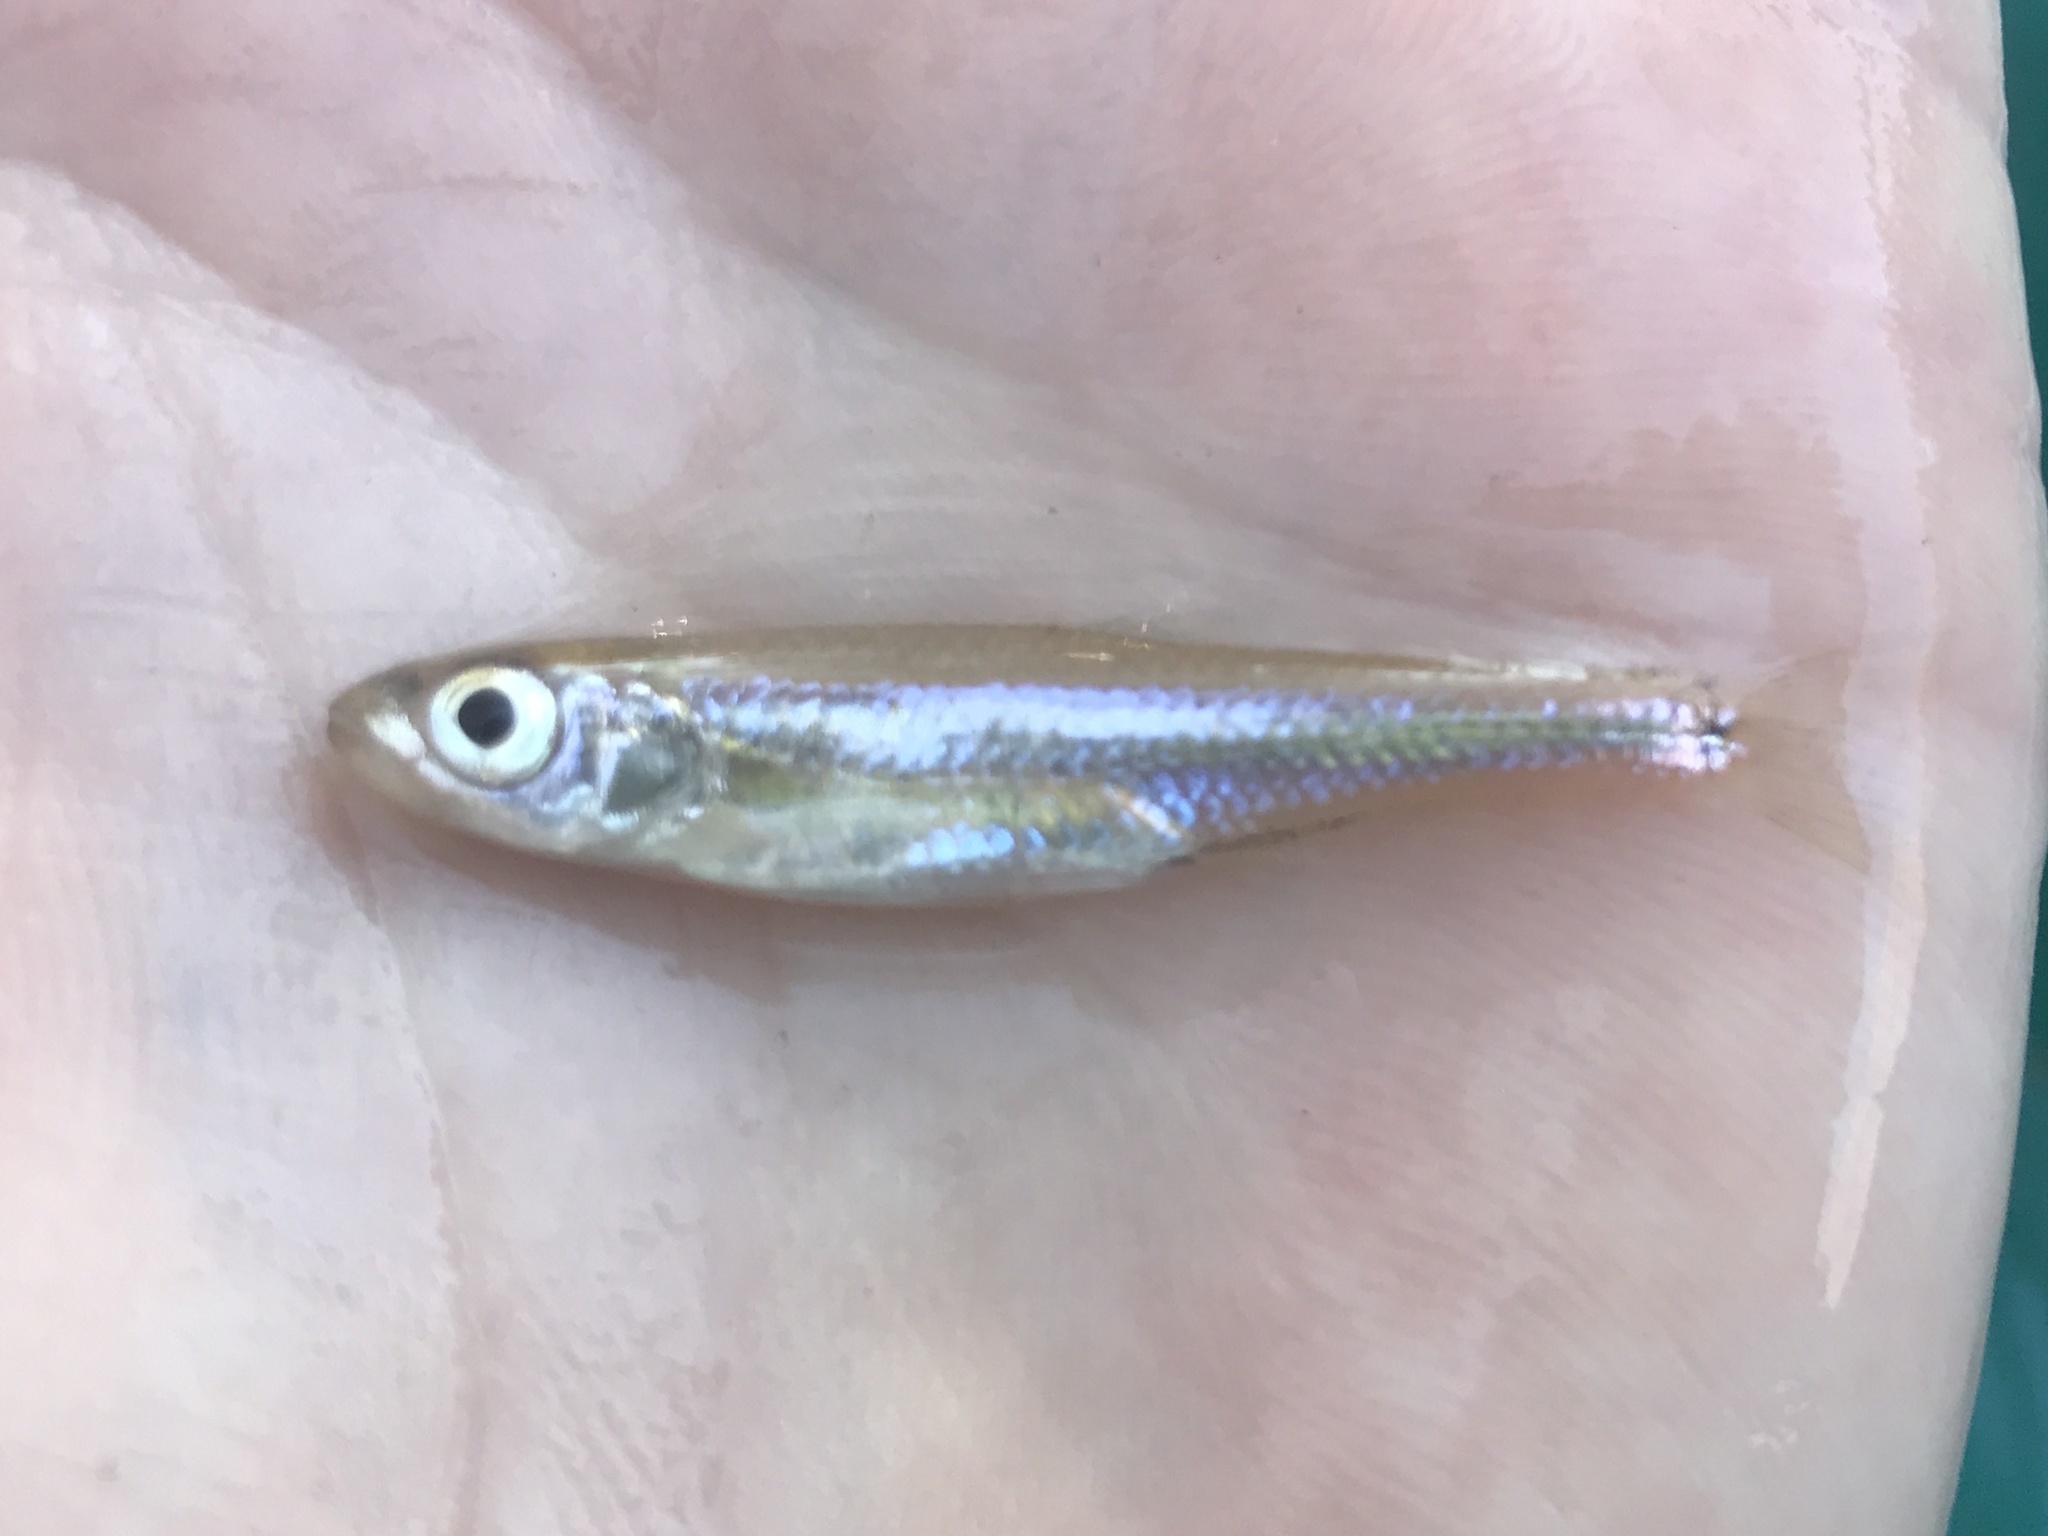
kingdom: Animalia
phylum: Chordata
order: Cypriniformes
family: Cyprinidae
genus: Notropis
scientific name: Notropis amabilis
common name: Texas shiner
